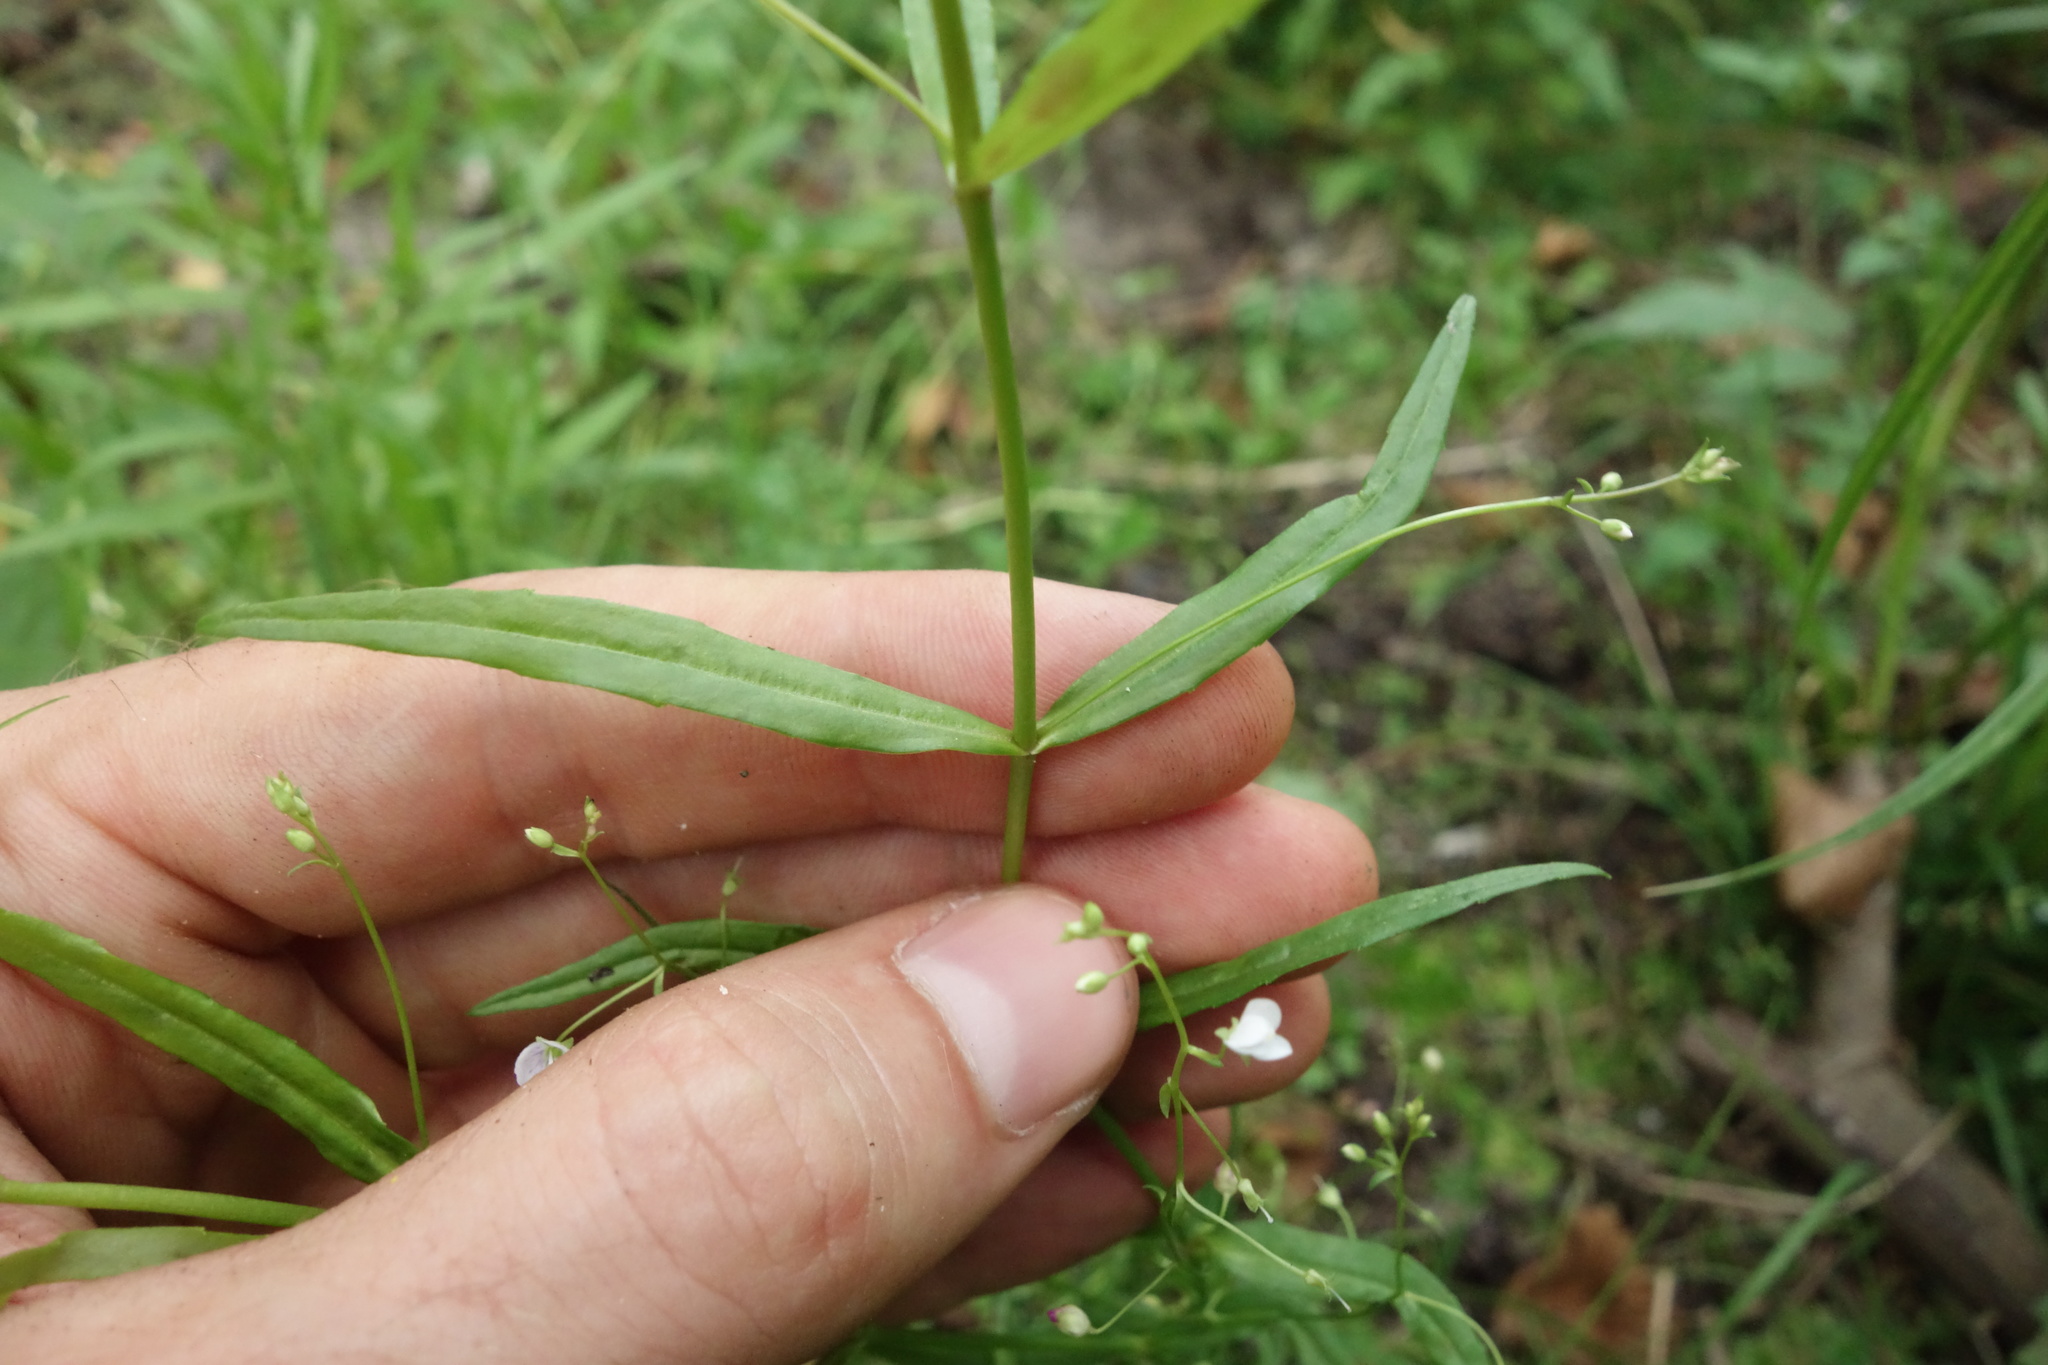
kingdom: Plantae
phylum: Tracheophyta
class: Magnoliopsida
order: Lamiales
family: Plantaginaceae
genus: Veronica
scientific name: Veronica scutellata
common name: Marsh speedwell
